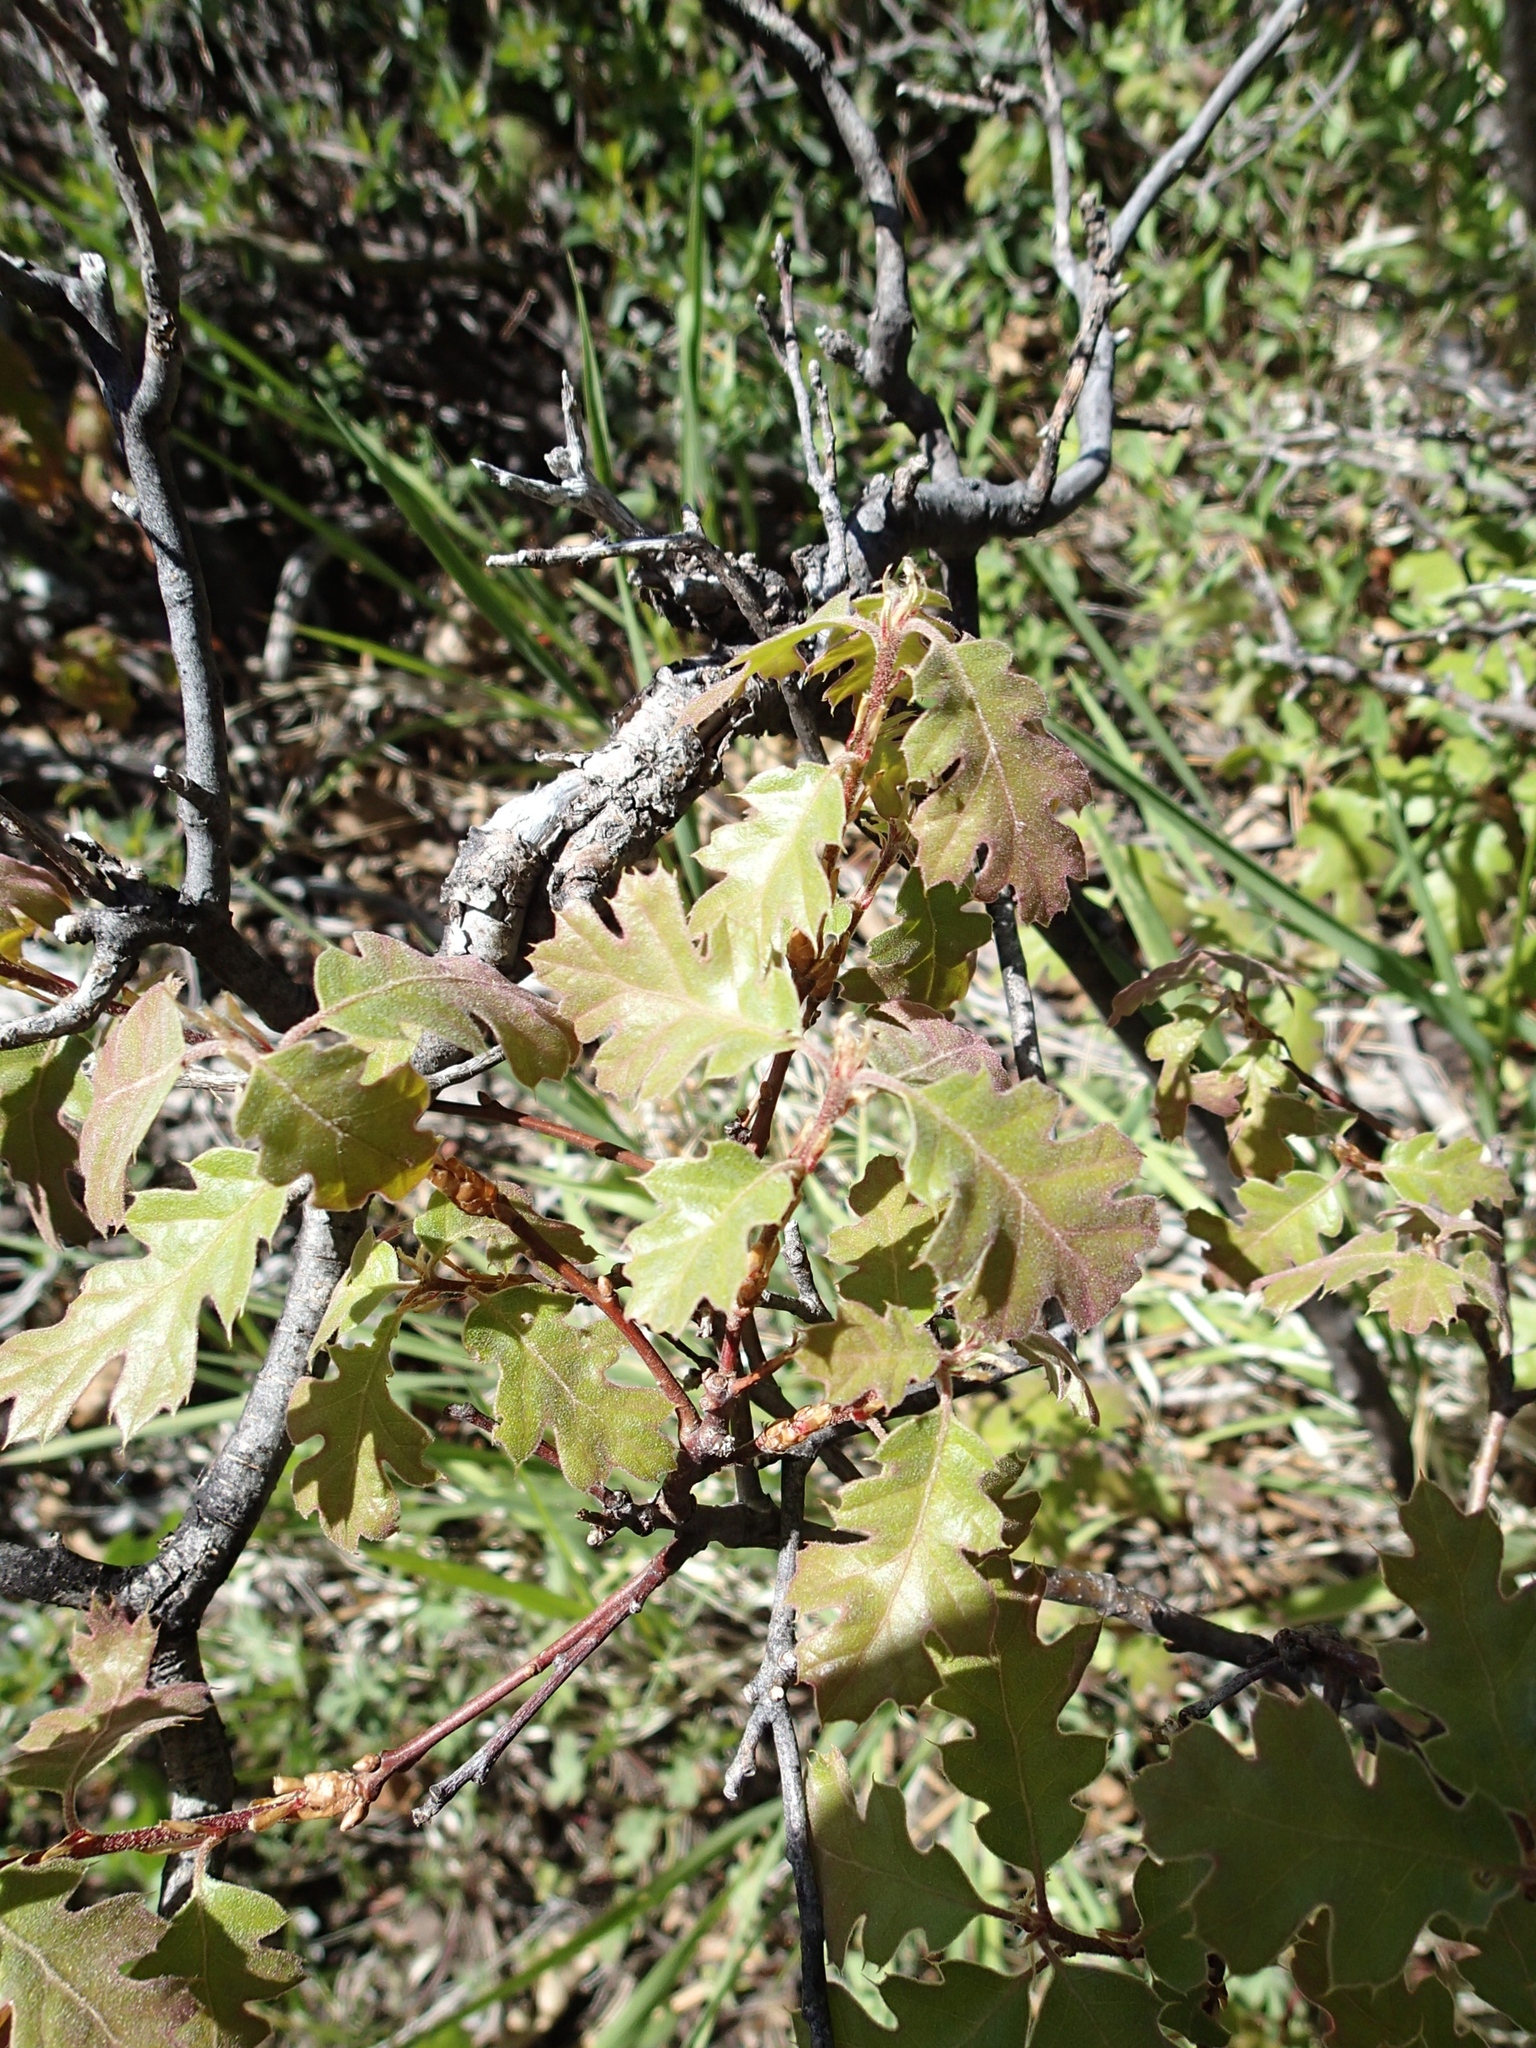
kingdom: Plantae
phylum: Tracheophyta
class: Magnoliopsida
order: Fagales
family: Fagaceae
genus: Quercus
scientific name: Quercus kelloggii
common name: California black oak
